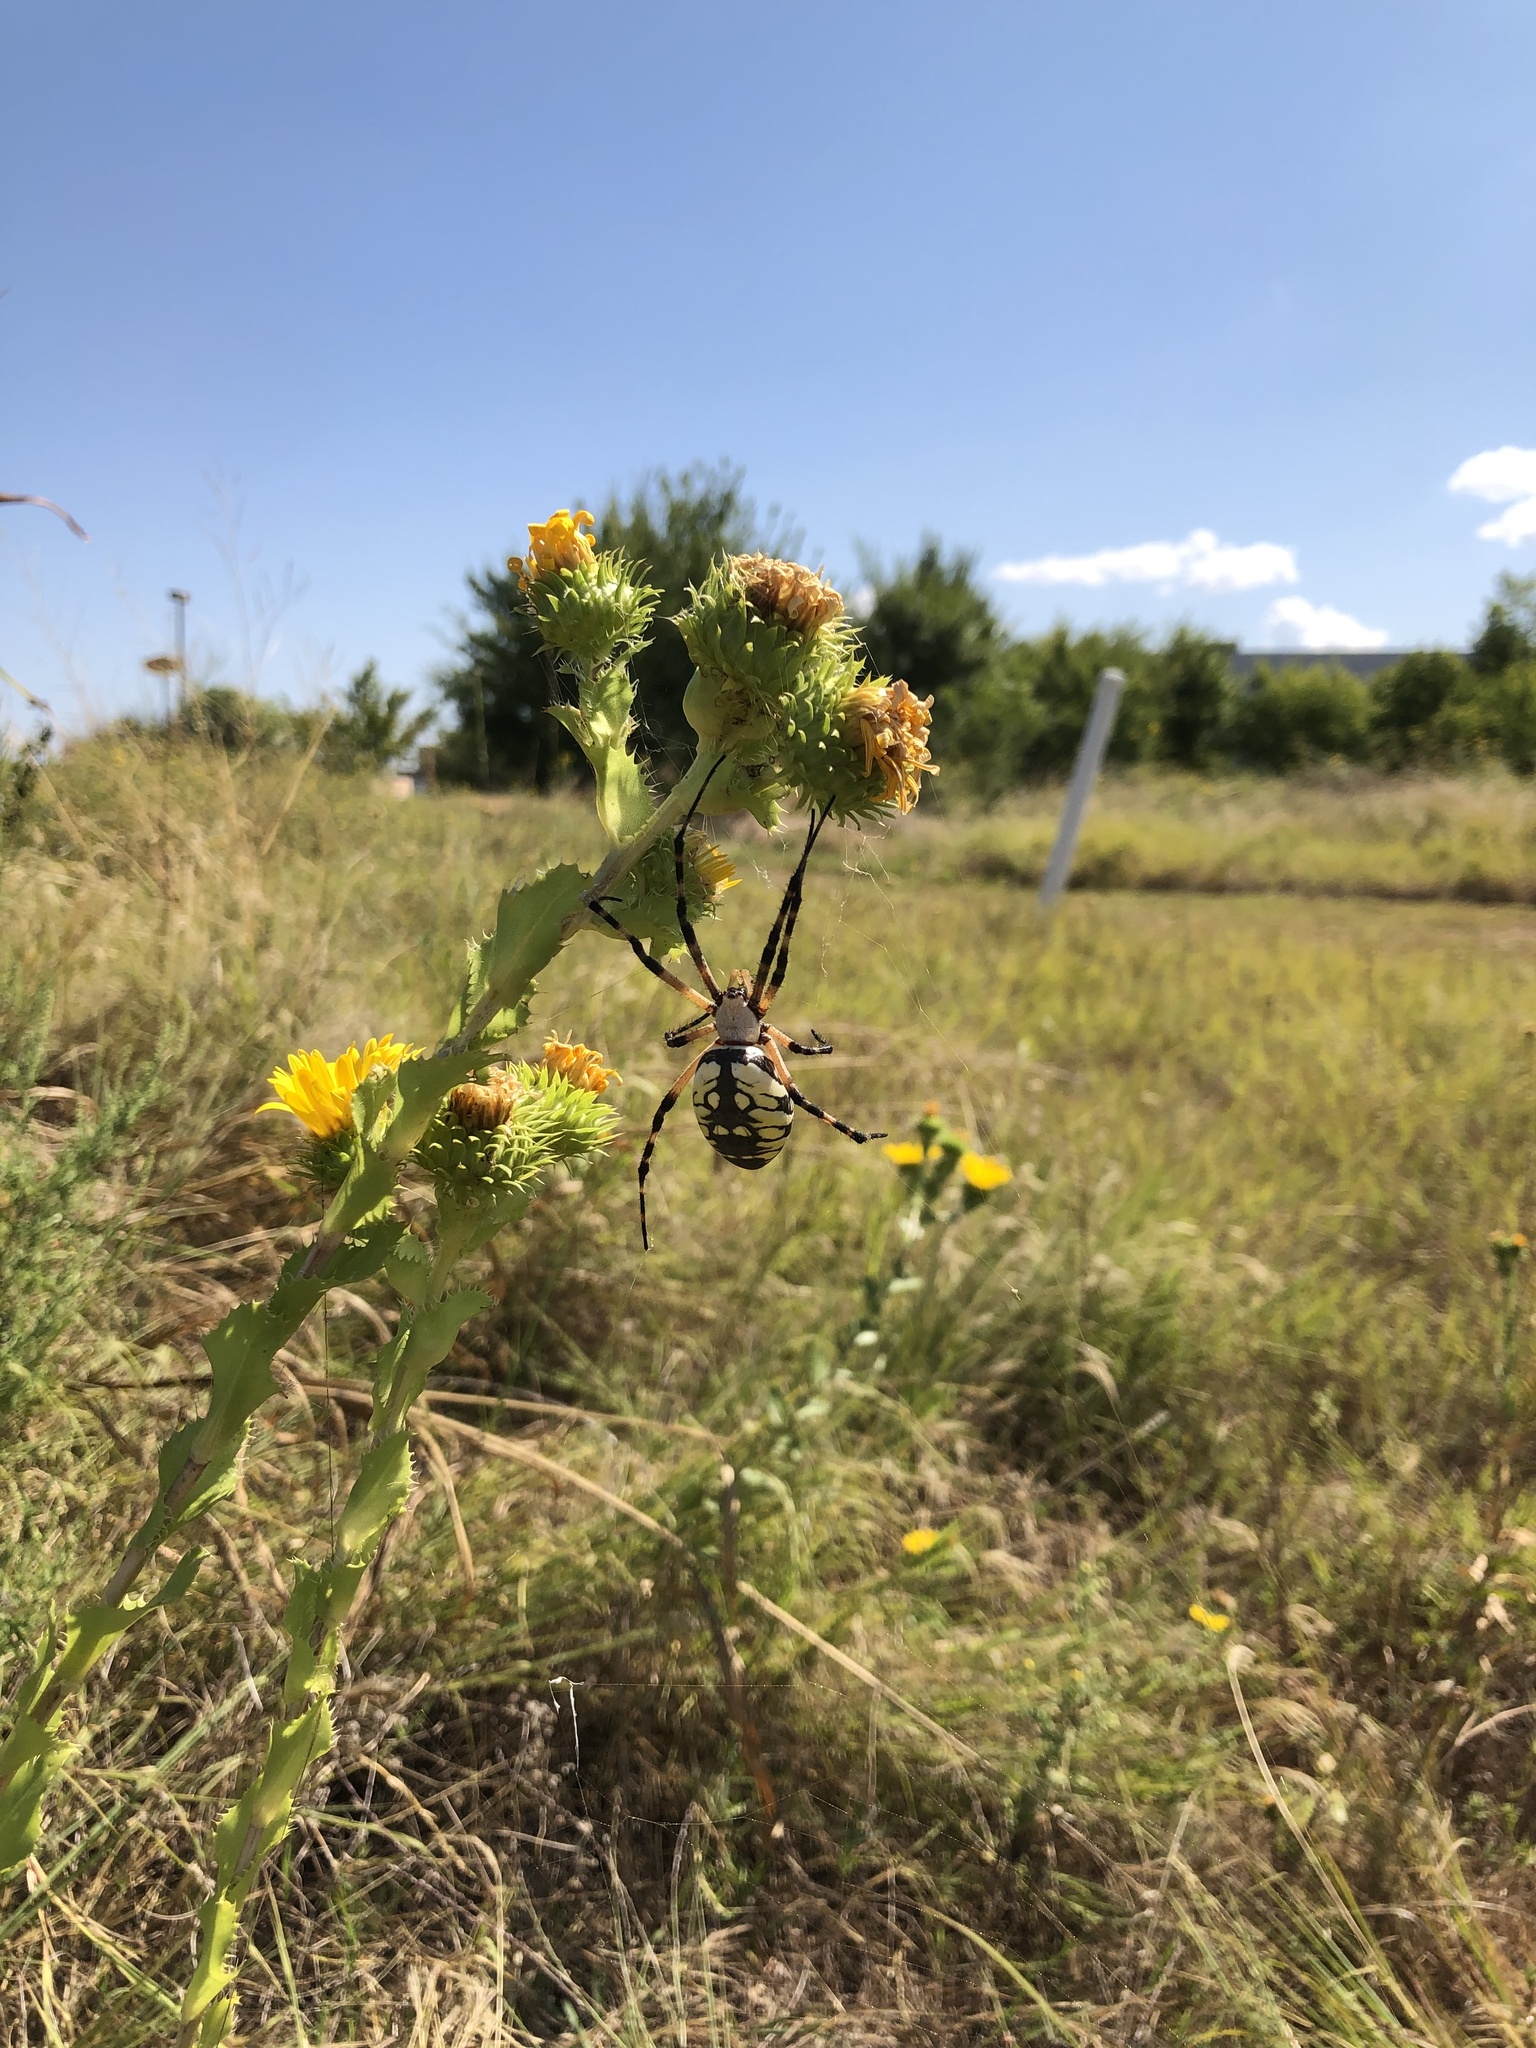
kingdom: Animalia
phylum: Arthropoda
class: Arachnida
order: Araneae
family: Araneidae
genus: Argiope
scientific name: Argiope aurantia
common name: Orb weavers
